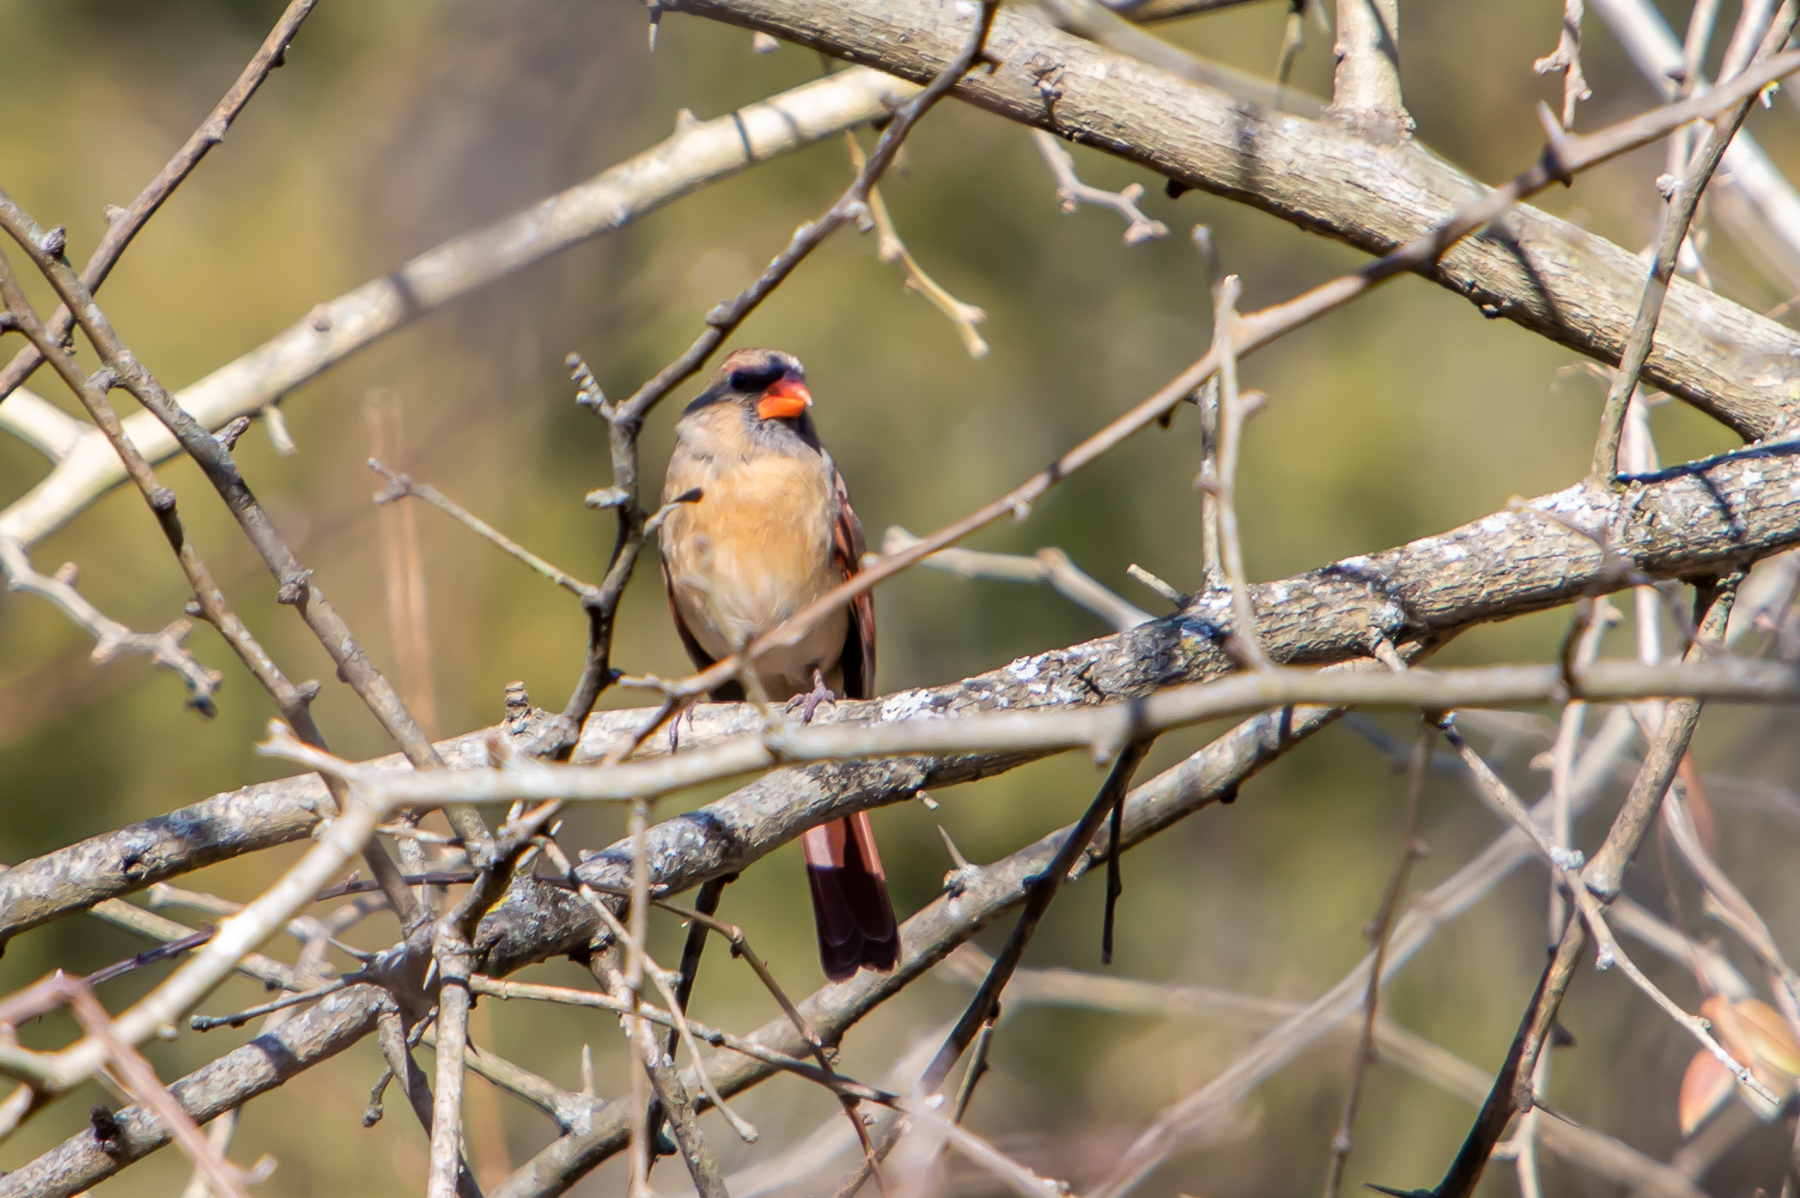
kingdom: Animalia
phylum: Chordata
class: Aves
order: Passeriformes
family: Cardinalidae
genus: Cardinalis
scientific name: Cardinalis cardinalis
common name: Northern cardinal
